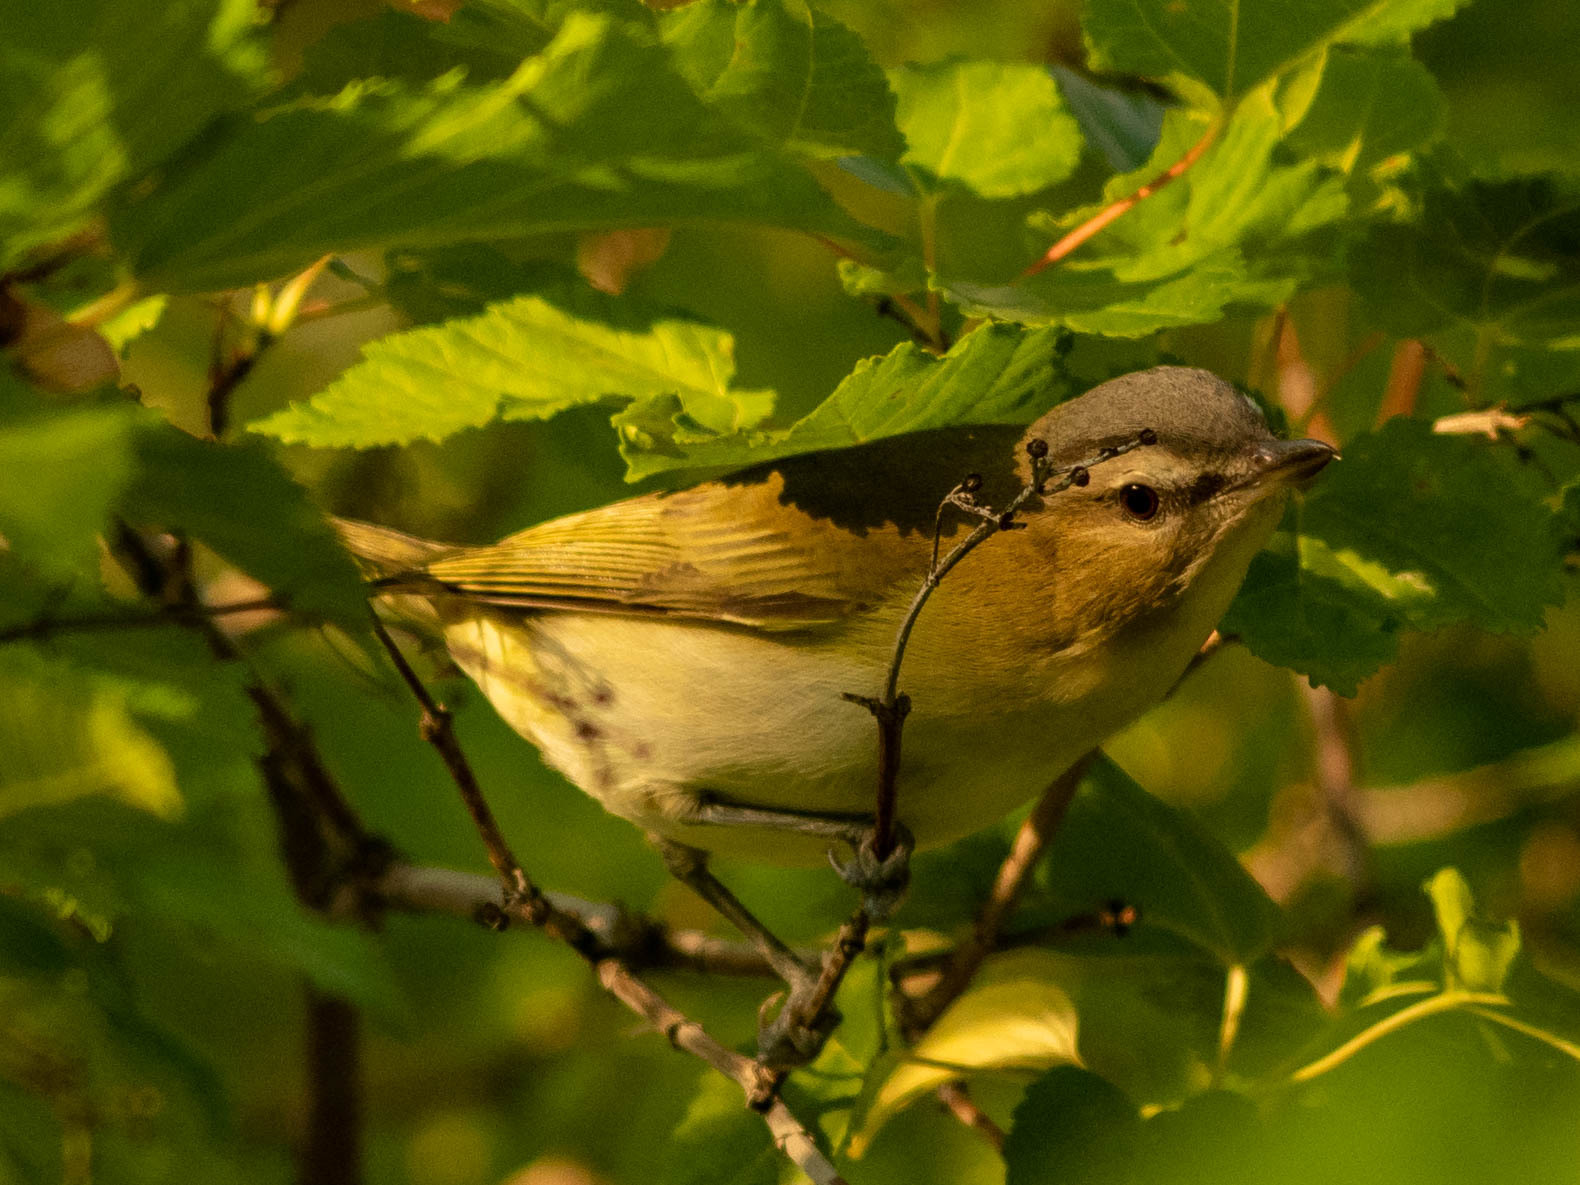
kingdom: Animalia
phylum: Chordata
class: Aves
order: Passeriformes
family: Vireonidae
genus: Vireo
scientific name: Vireo olivaceus
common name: Red-eyed vireo
